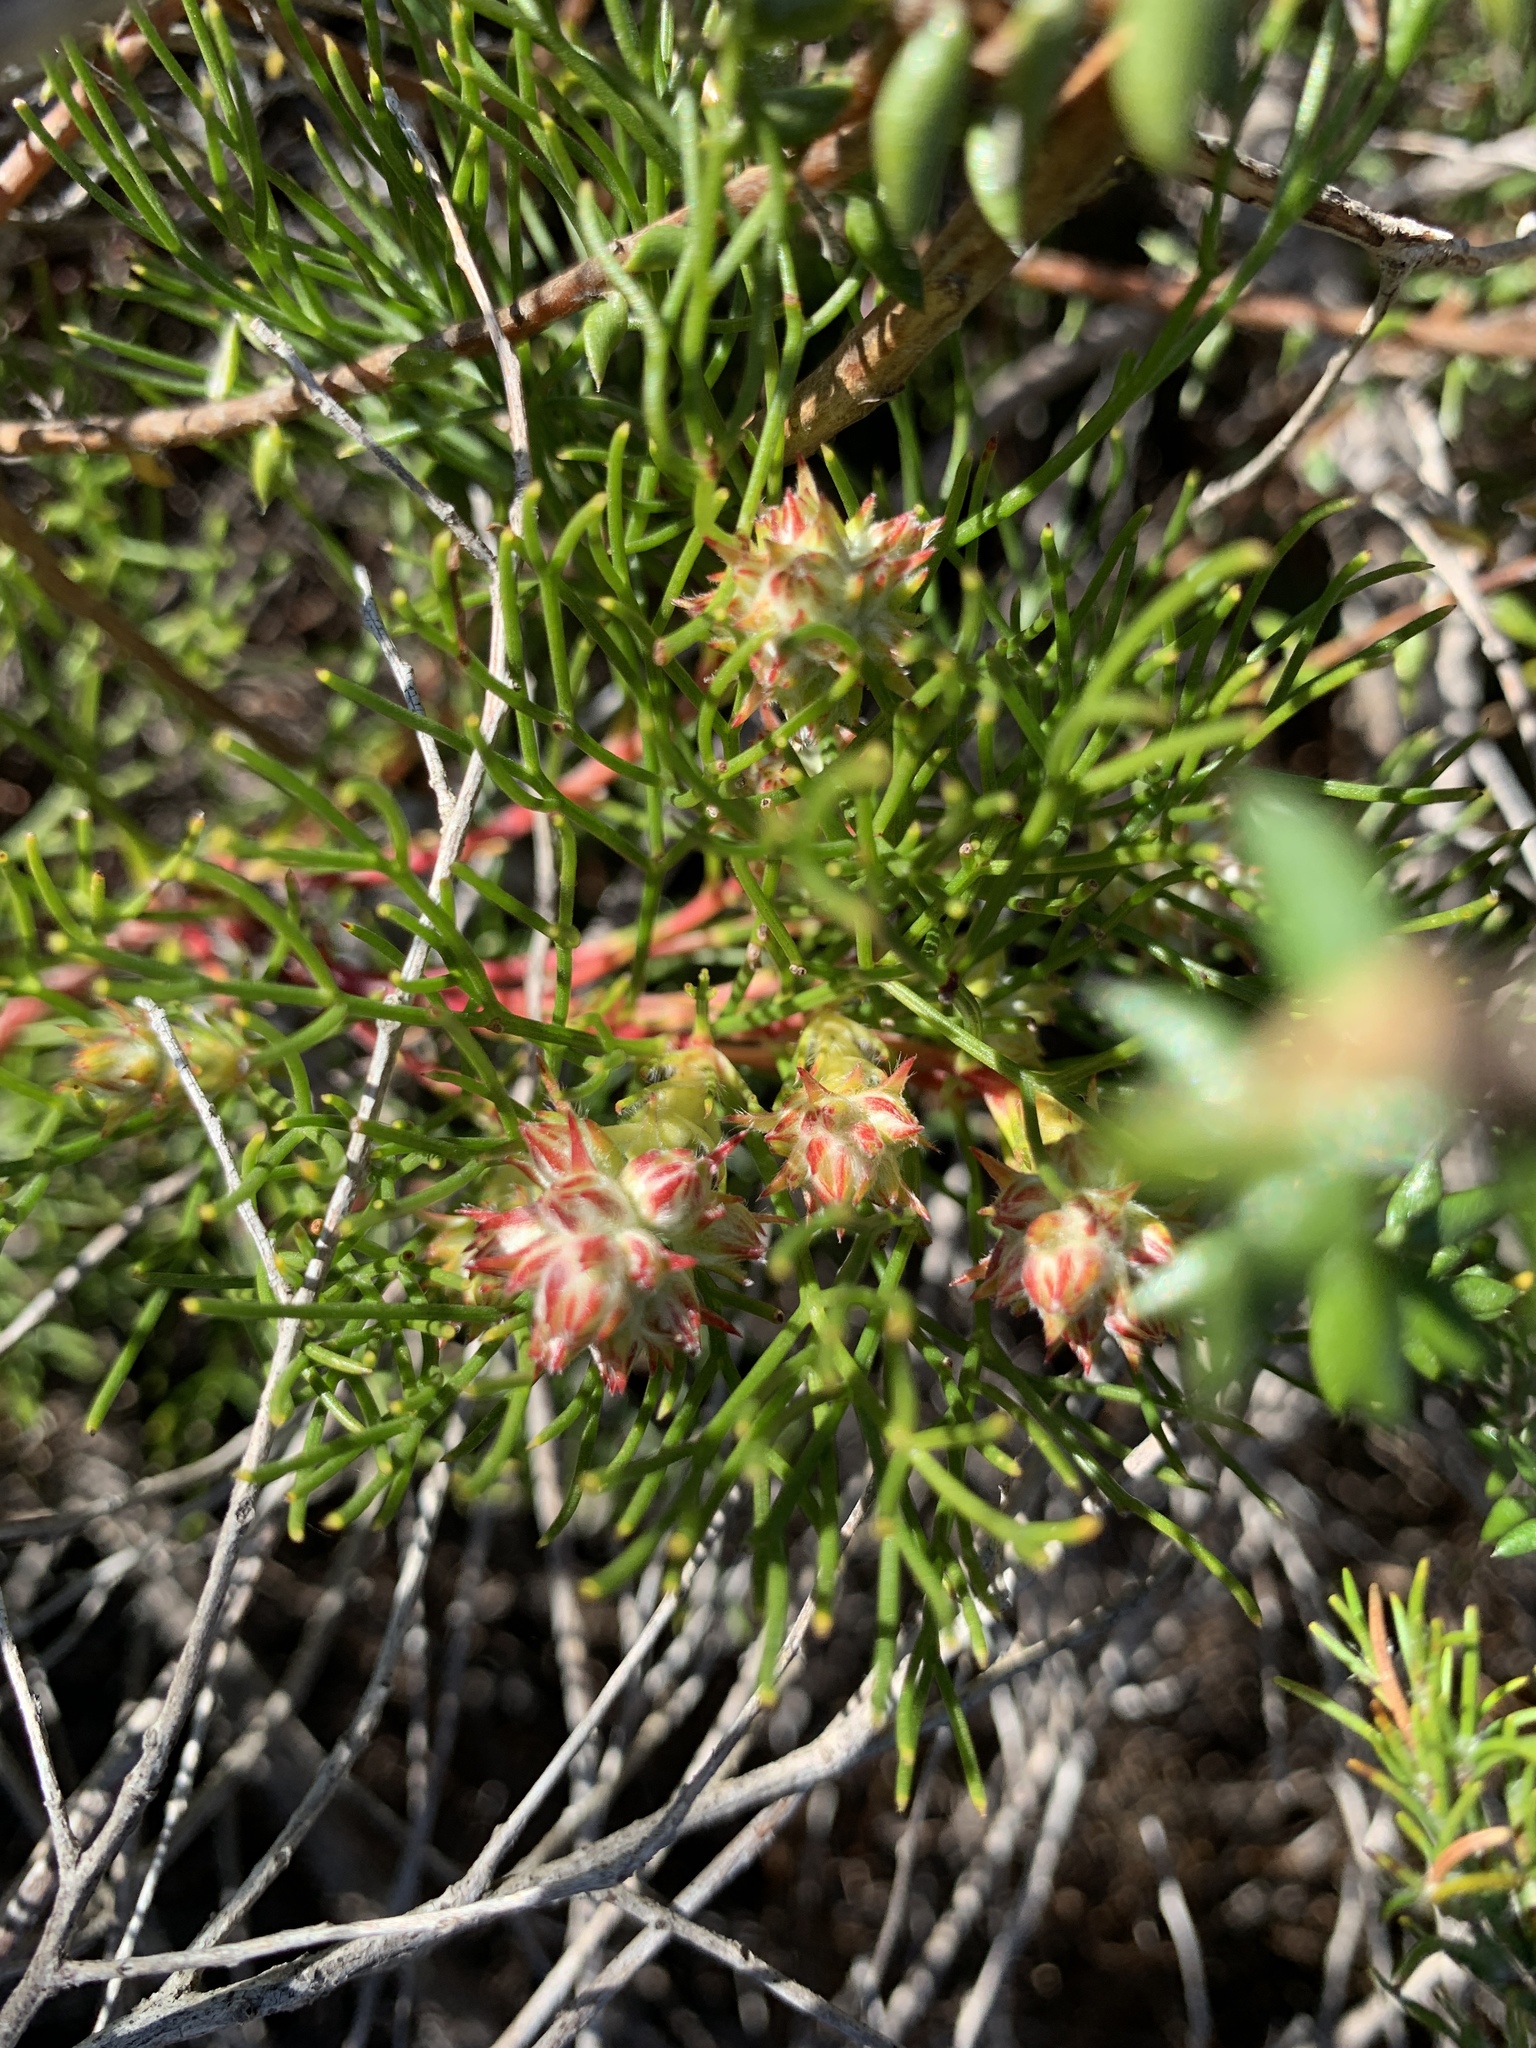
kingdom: Plantae
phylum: Tracheophyta
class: Magnoliopsida
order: Proteales
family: Proteaceae
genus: Serruria
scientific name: Serruria rubricaulis
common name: Red-stem spiderhead
